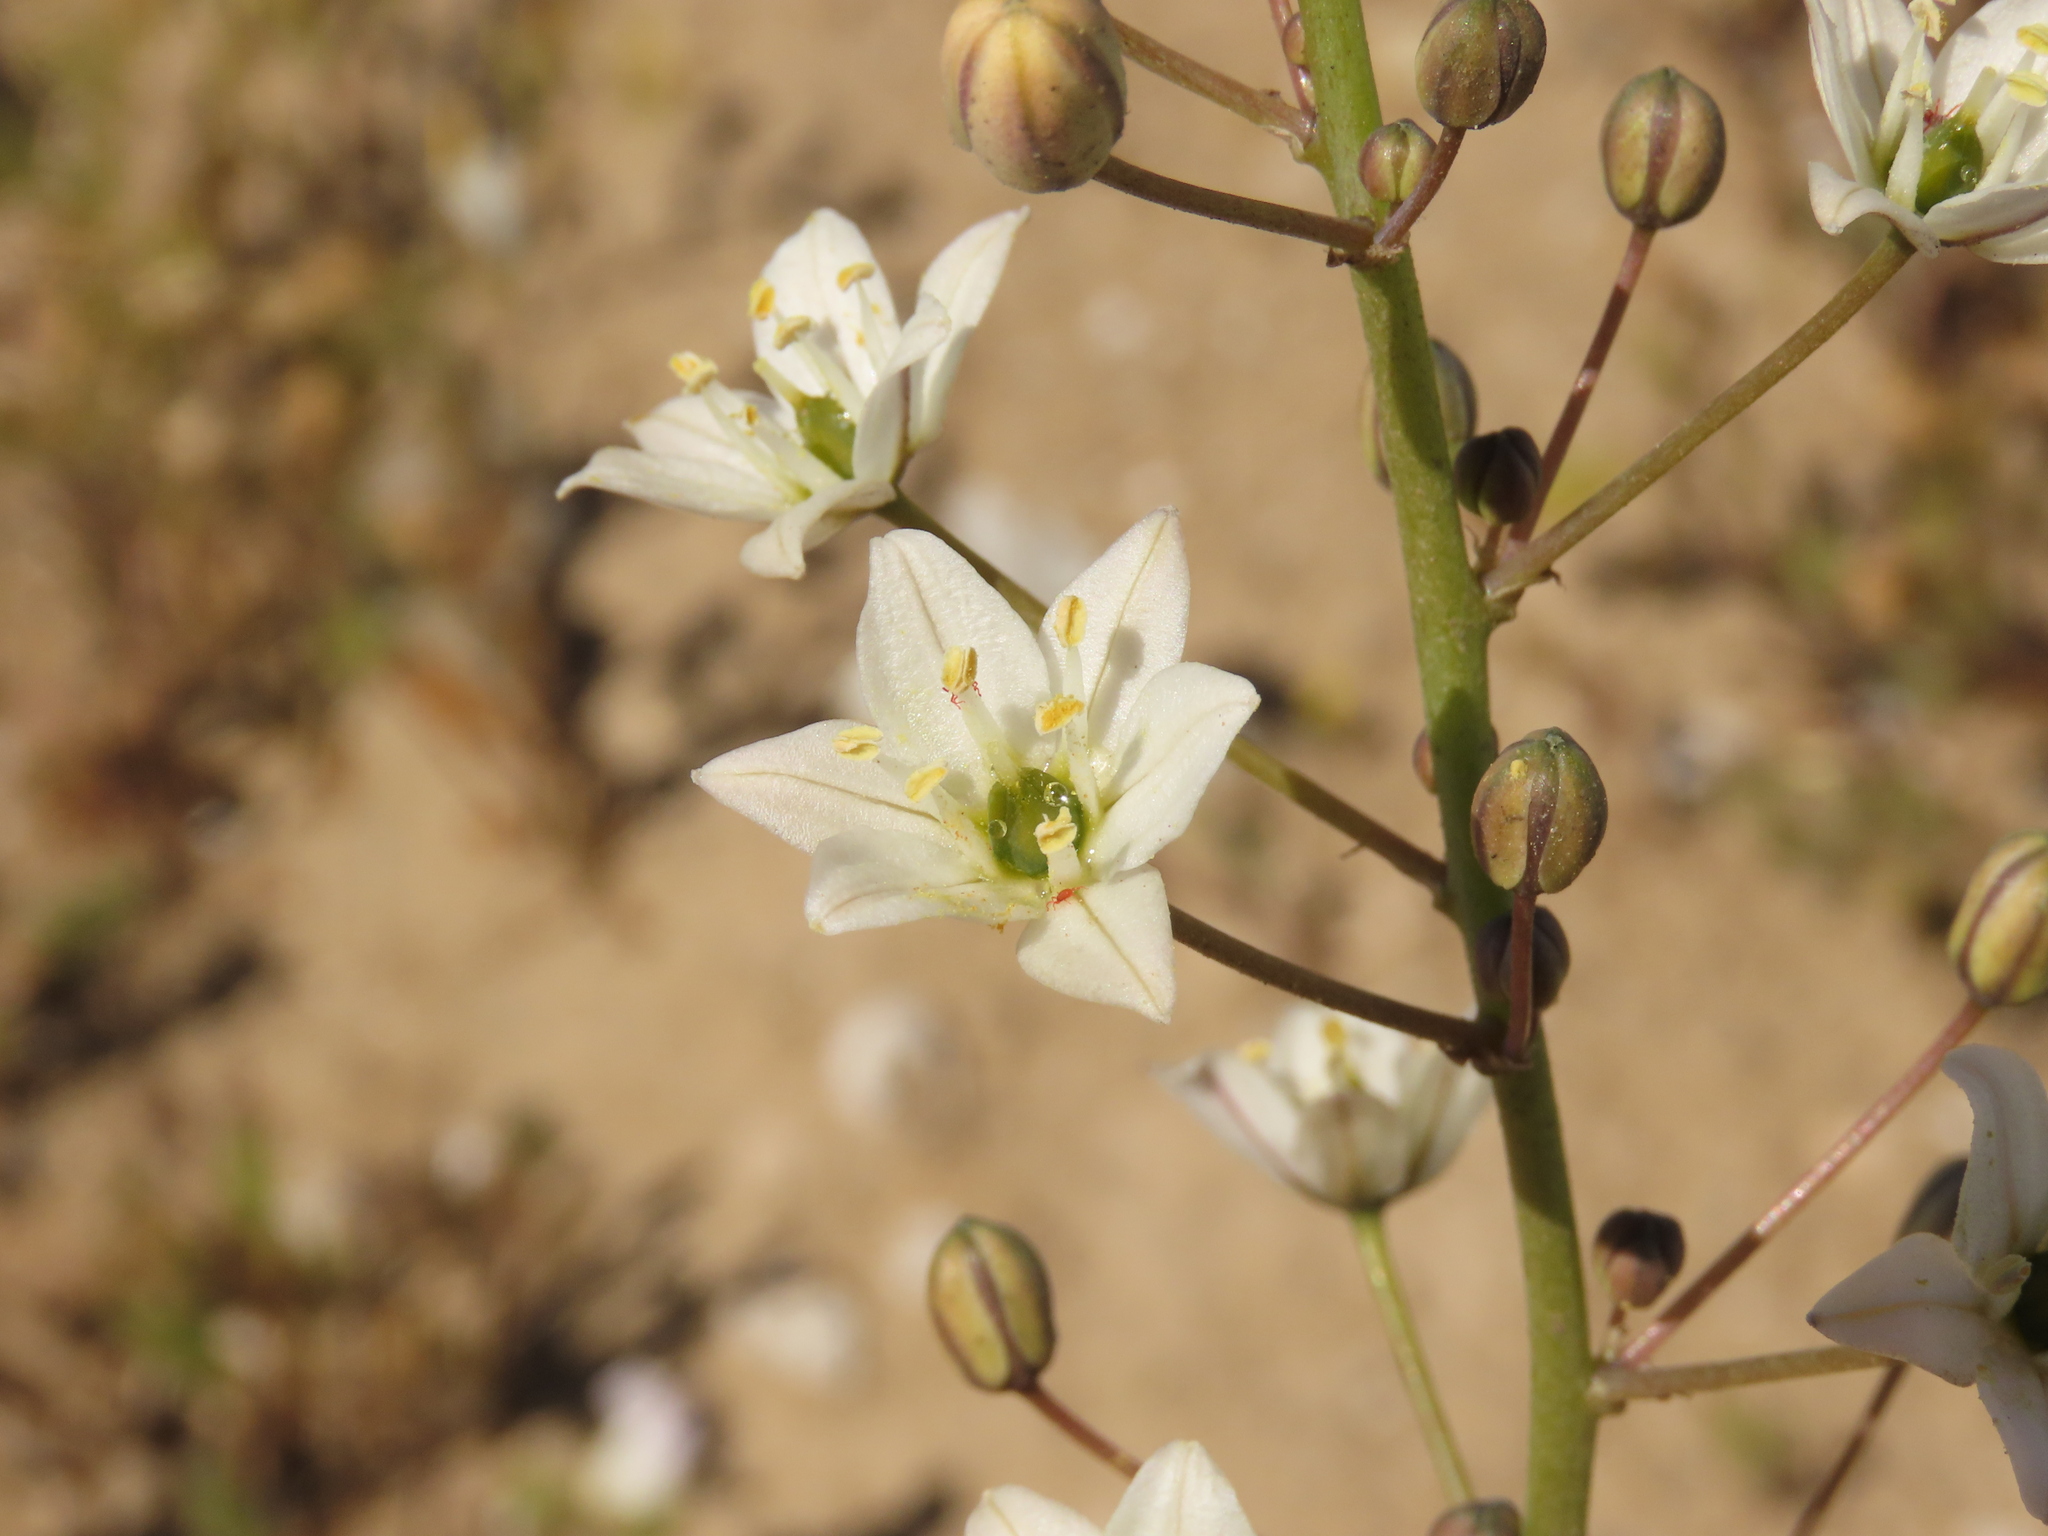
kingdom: Plantae
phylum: Tracheophyta
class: Liliopsida
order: Asparagales
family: Asparagaceae
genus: Oziroe
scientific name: Oziroe biflora
